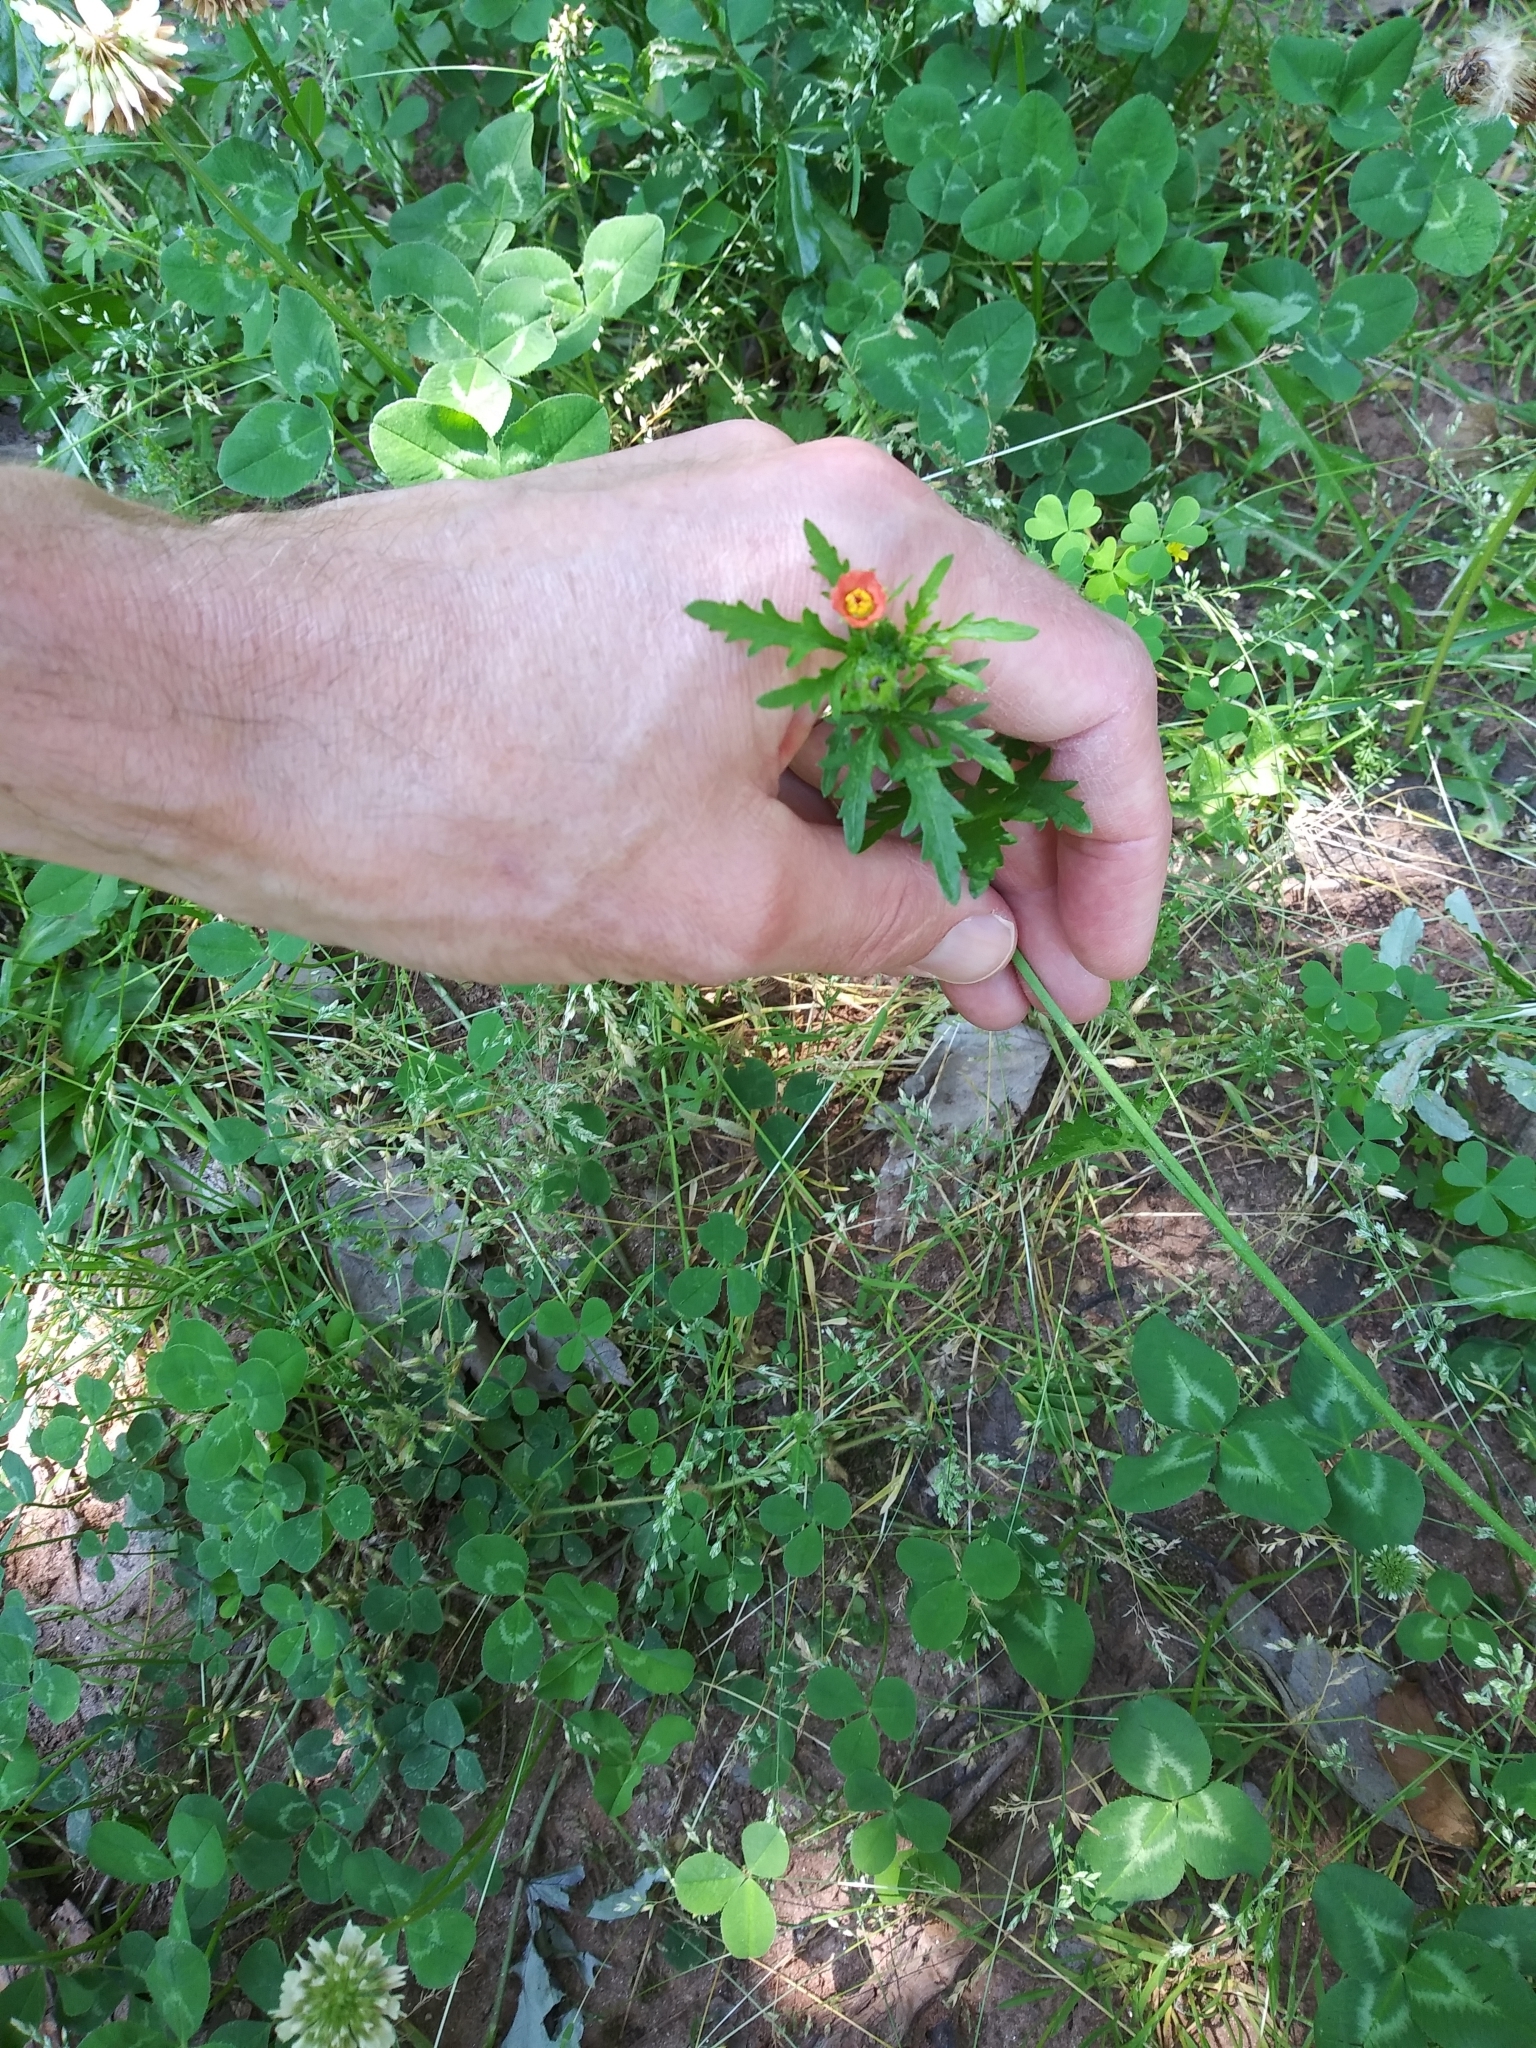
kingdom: Plantae
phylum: Tracheophyta
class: Magnoliopsida
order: Malvales
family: Malvaceae
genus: Modiola
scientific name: Modiola caroliniana
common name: Carolina bristlemallow
